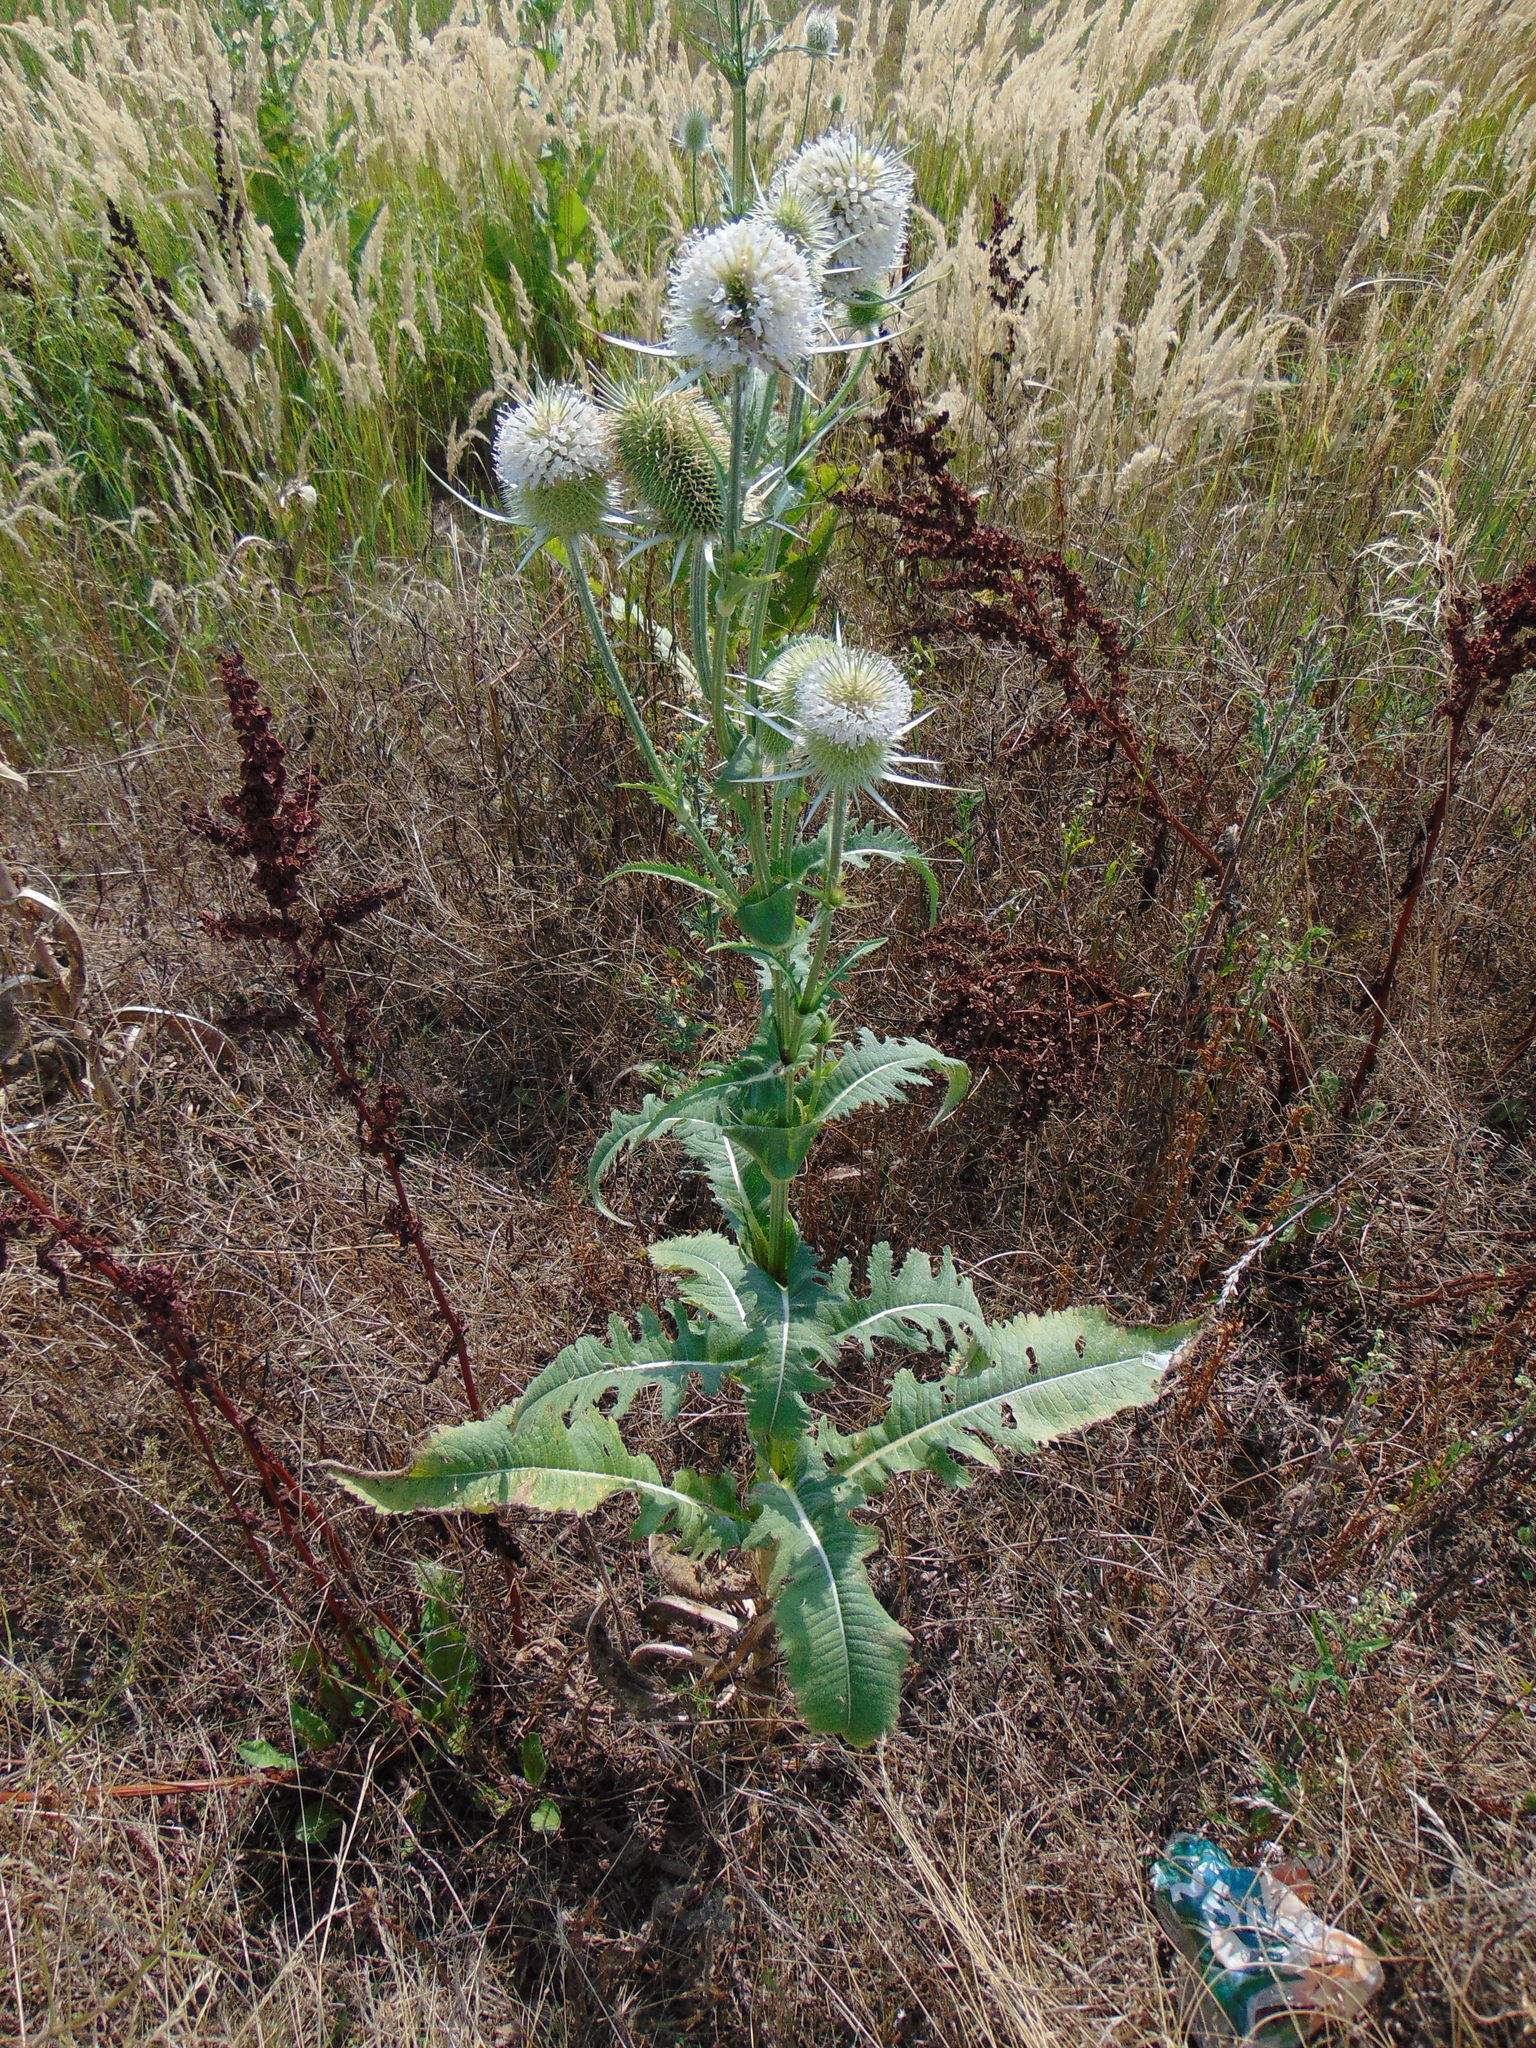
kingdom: Plantae
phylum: Tracheophyta
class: Magnoliopsida
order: Dipsacales
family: Caprifoliaceae
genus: Dipsacus
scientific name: Dipsacus laciniatus
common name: Cut-leaved teasel
